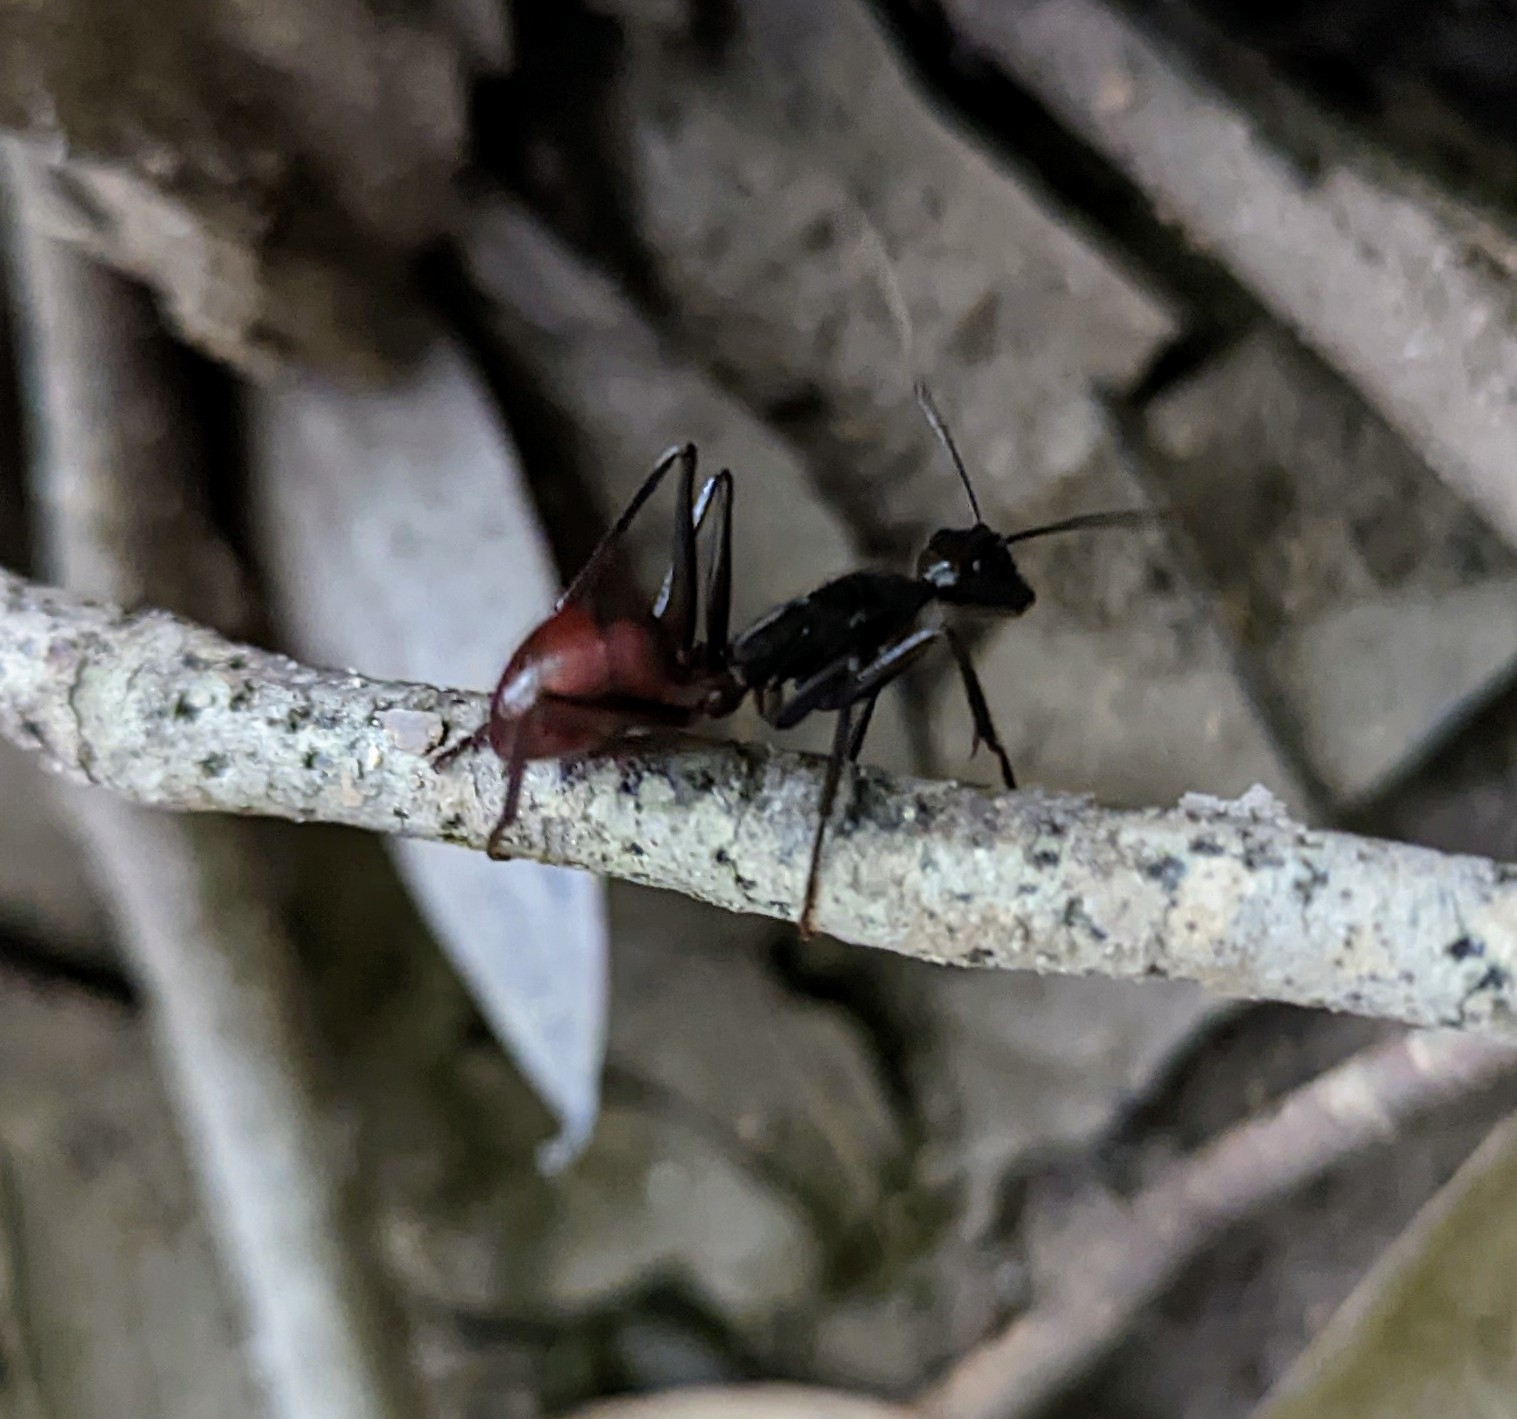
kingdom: Animalia
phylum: Arthropoda
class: Insecta
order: Hymenoptera
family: Formicidae
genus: Dinomyrmex
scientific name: Dinomyrmex
